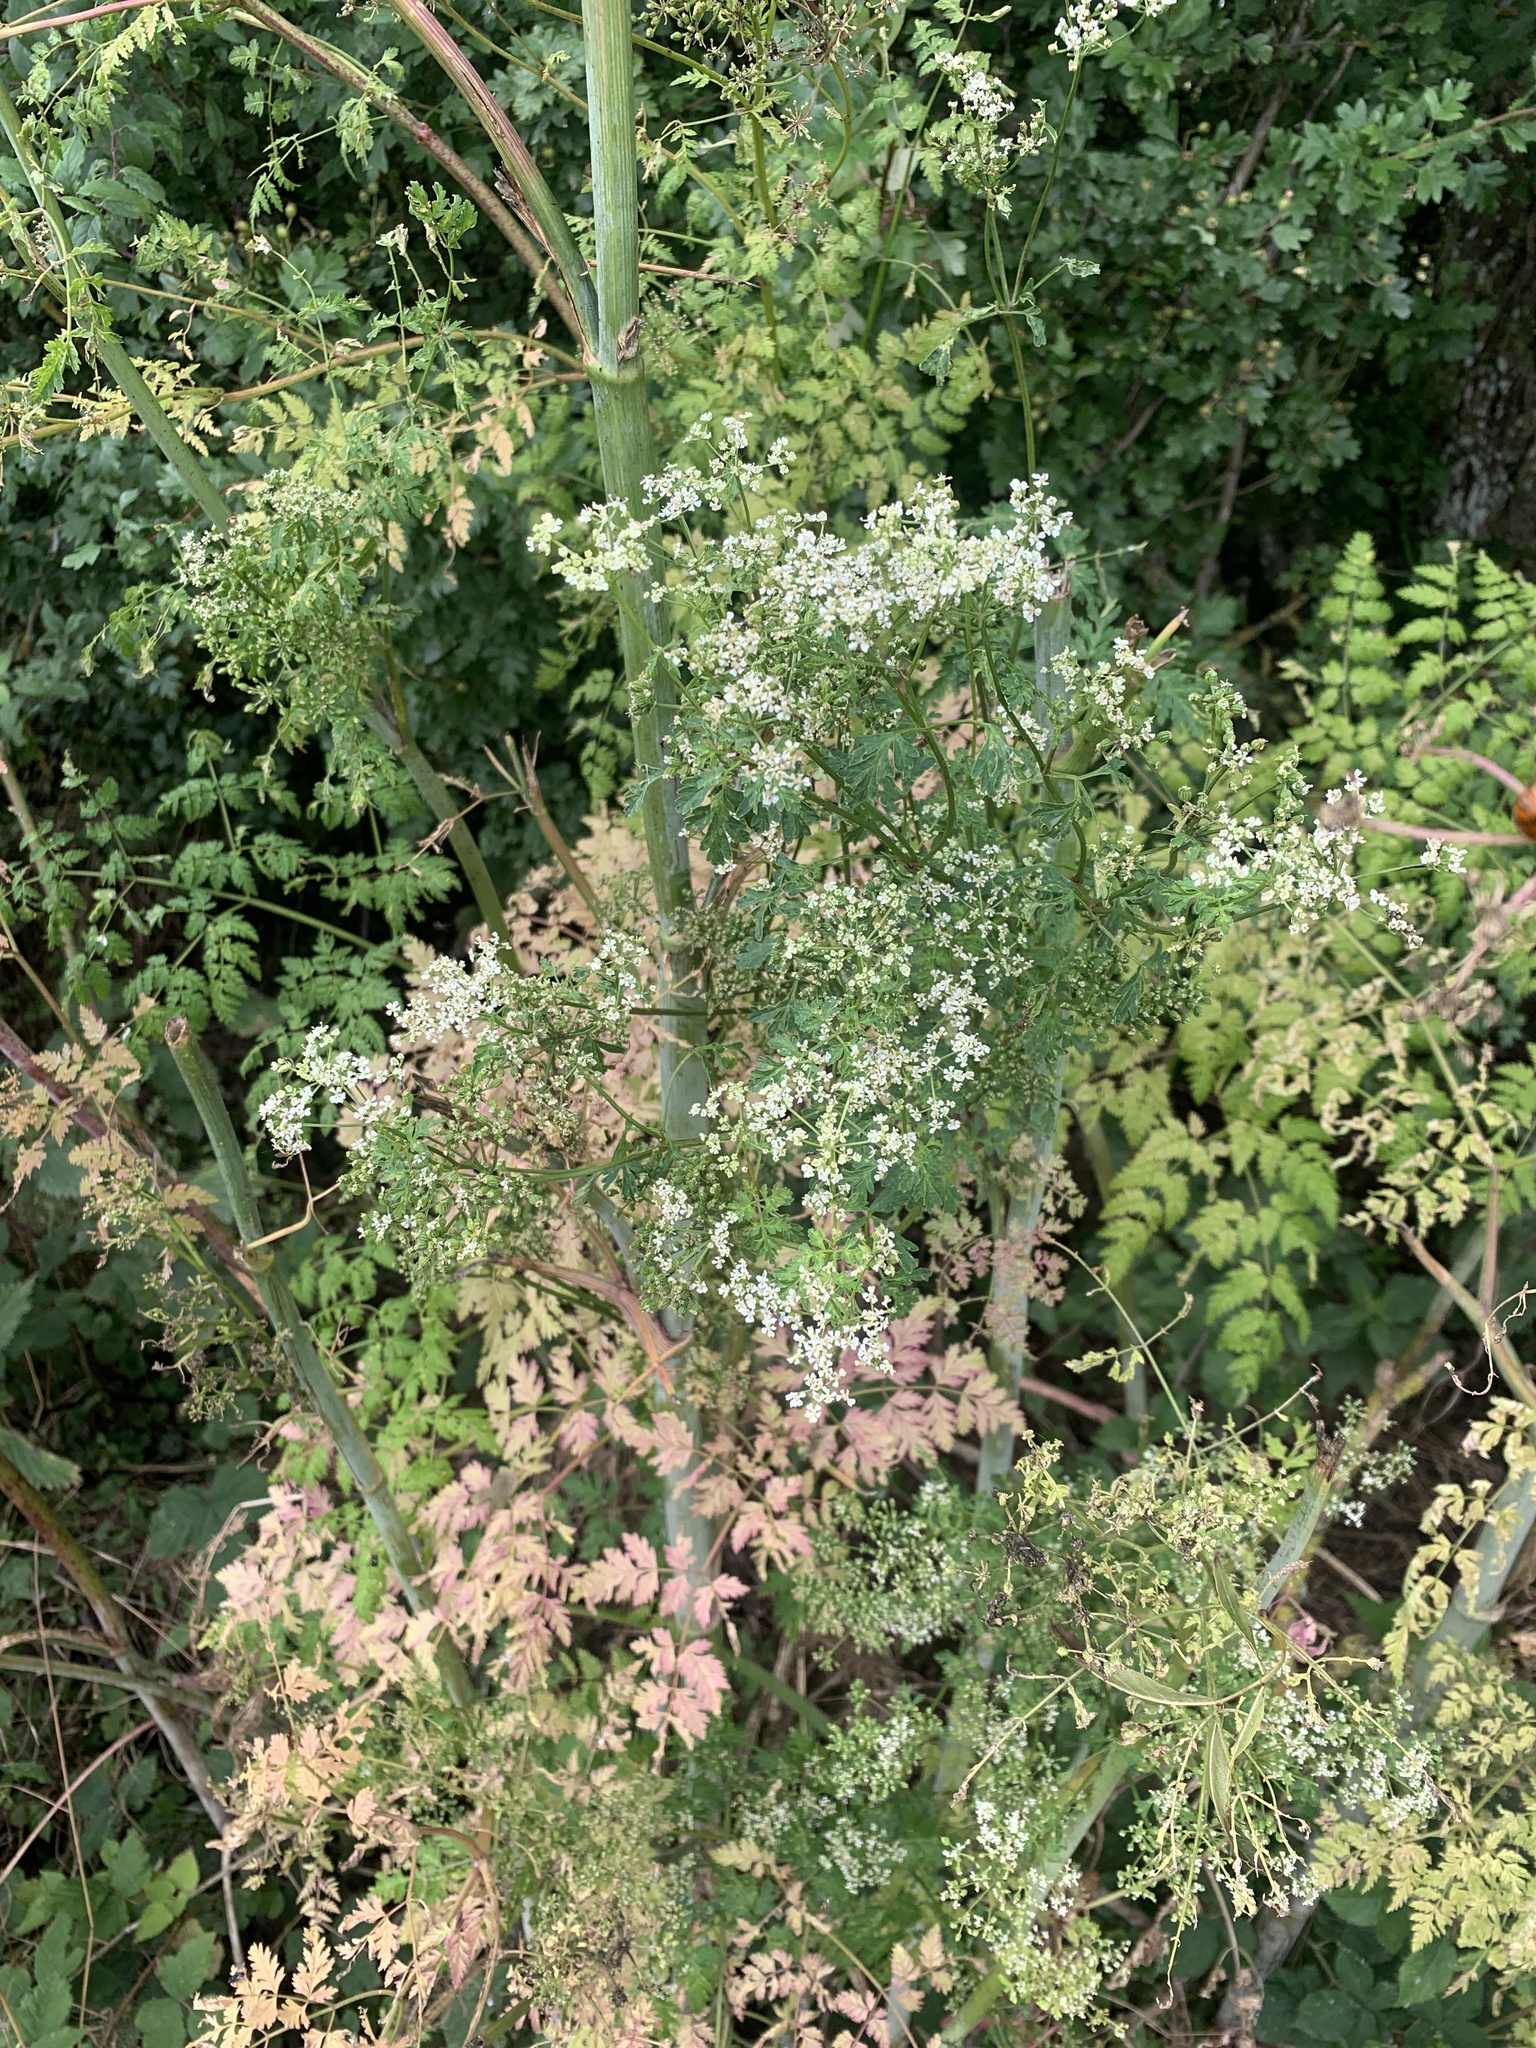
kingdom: Plantae
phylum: Tracheophyta
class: Magnoliopsida
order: Apiales
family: Apiaceae
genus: Conium
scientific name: Conium maculatum
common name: Hemlock
